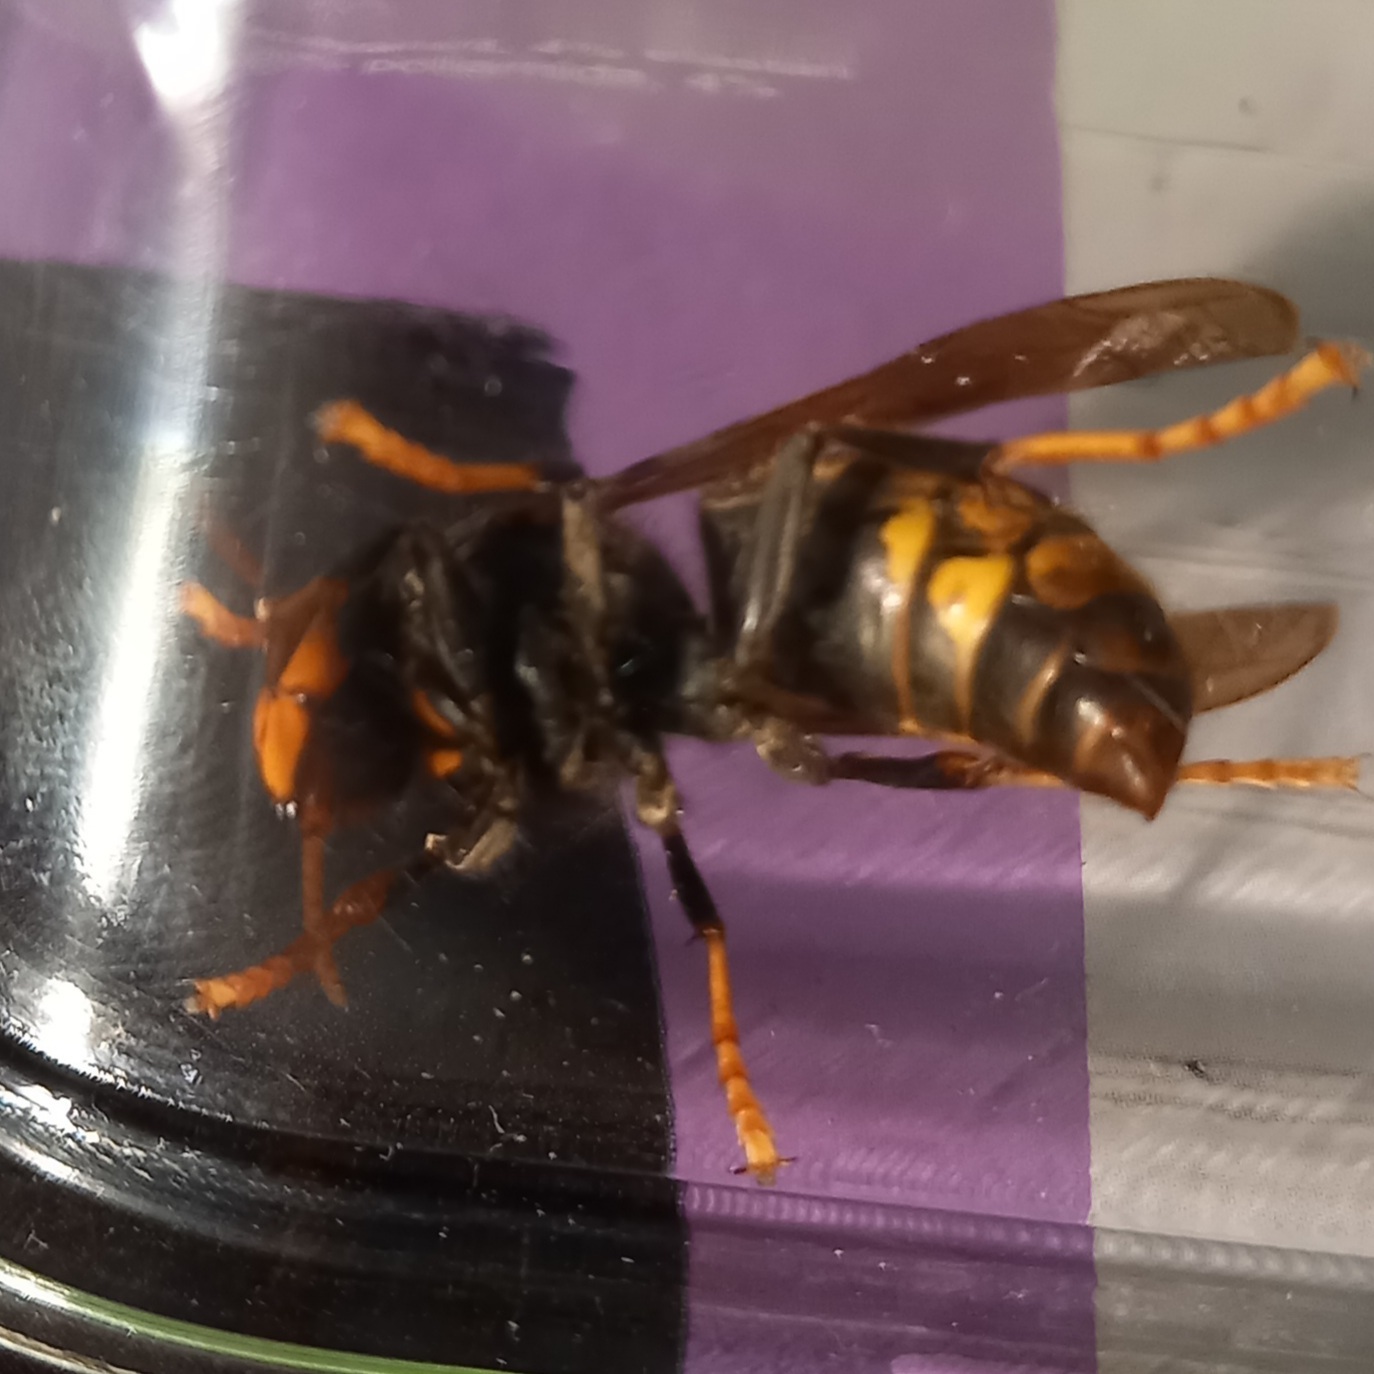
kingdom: Animalia
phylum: Arthropoda
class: Insecta
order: Hymenoptera
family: Vespidae
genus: Vespa
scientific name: Vespa velutina
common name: Asian hornet
